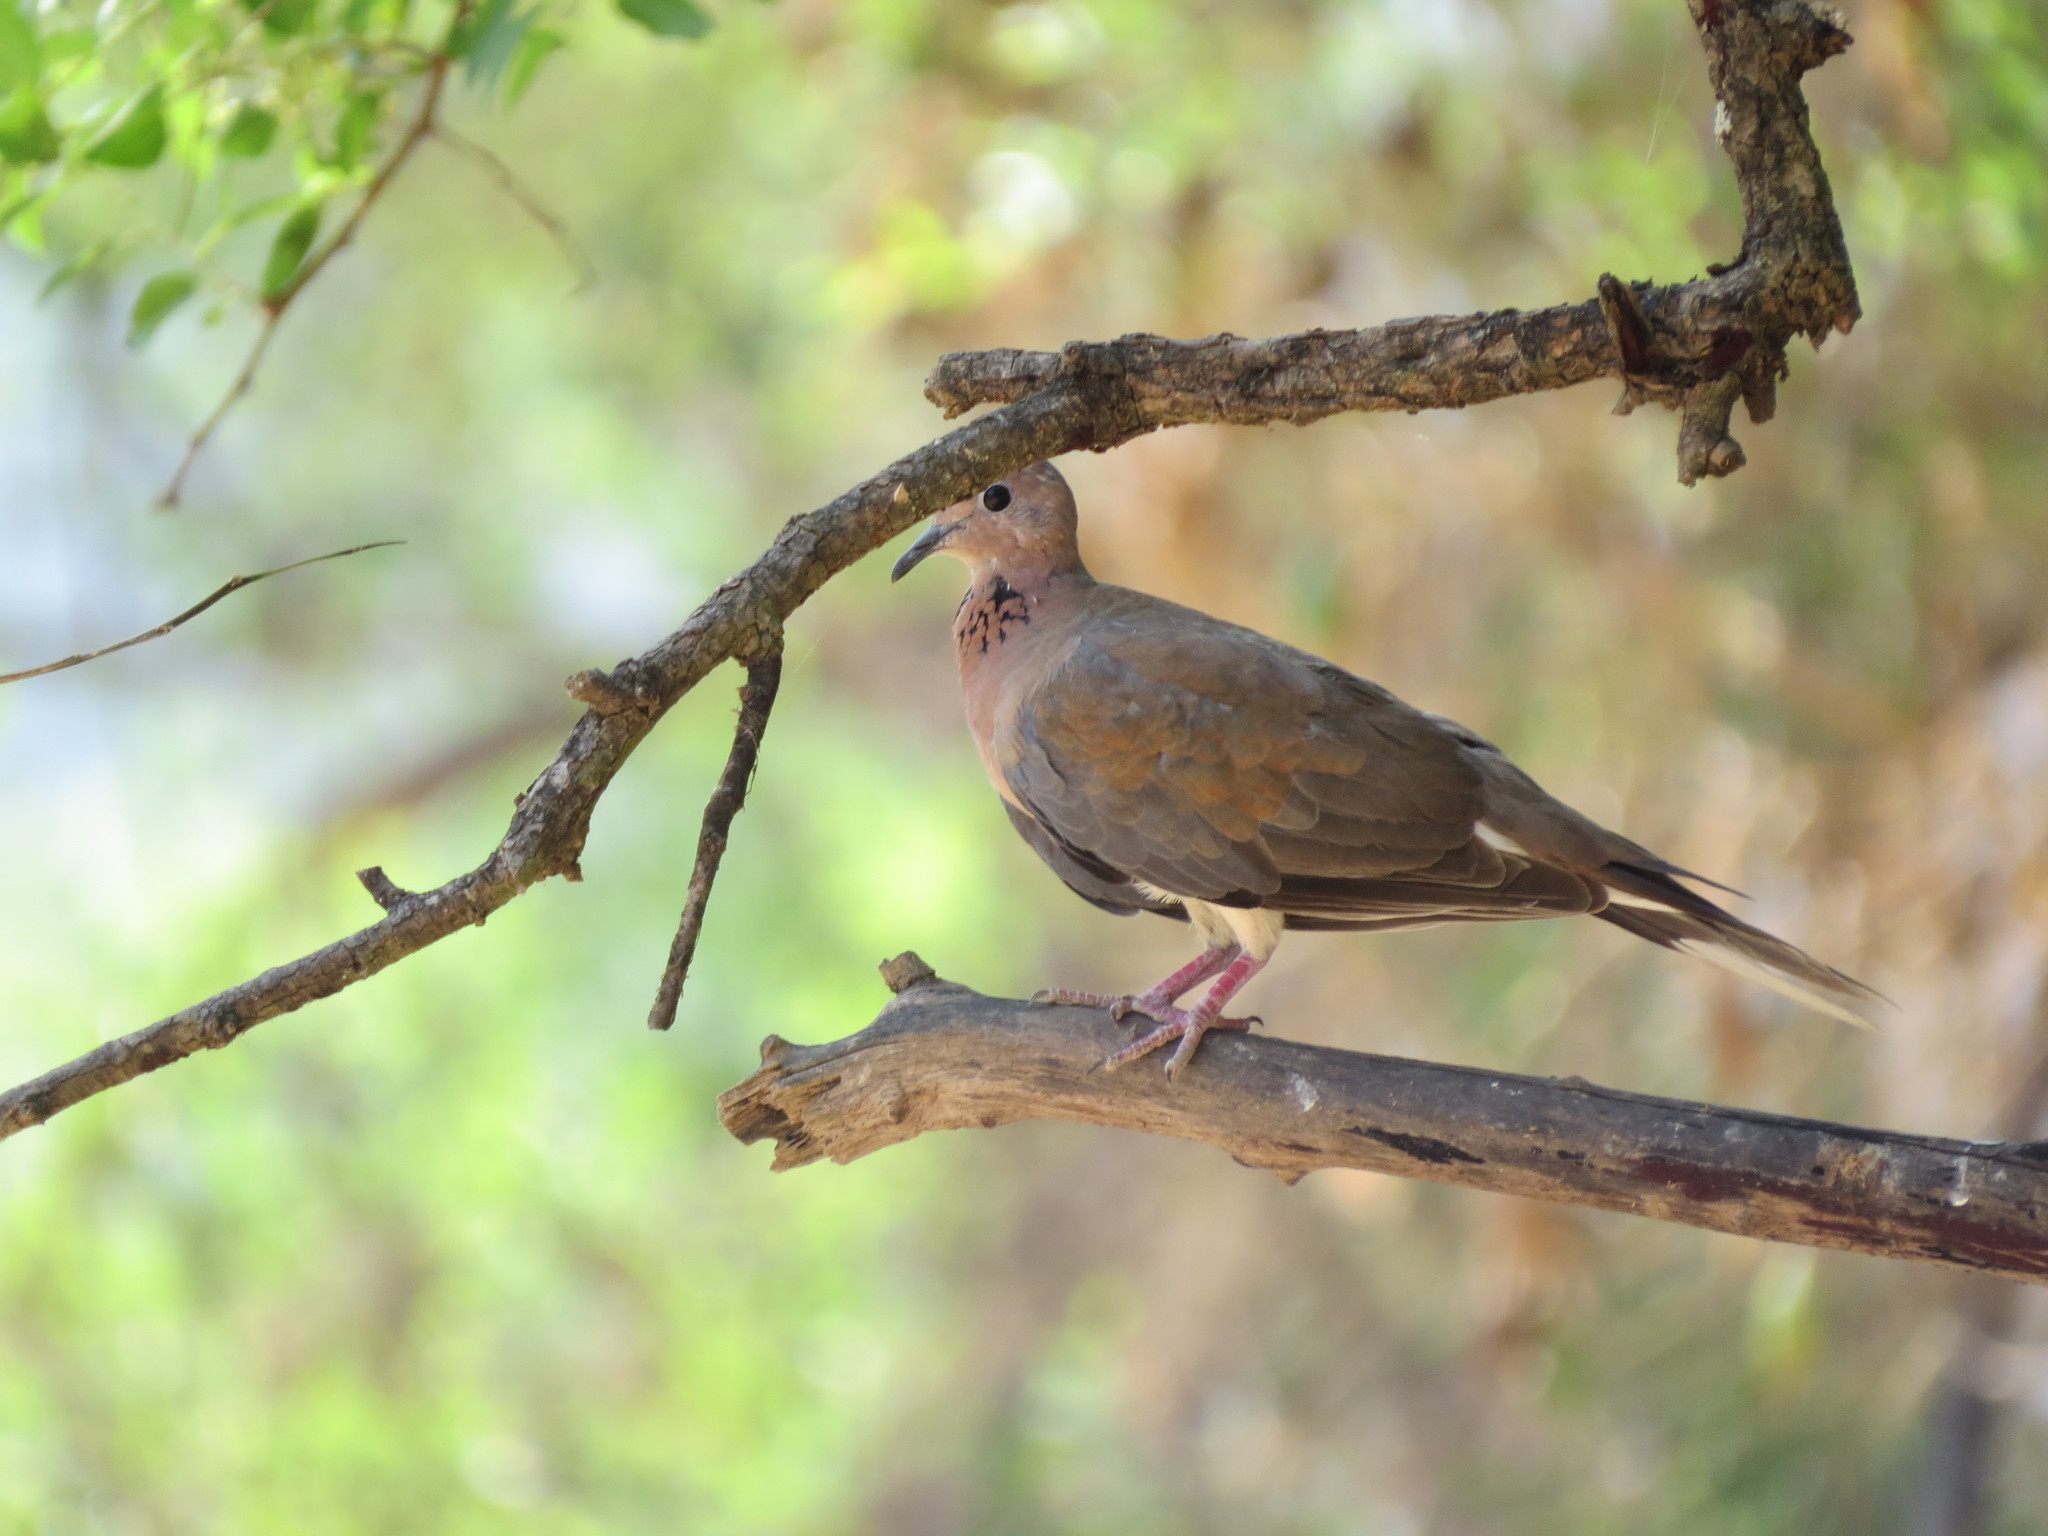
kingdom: Animalia
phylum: Chordata
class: Aves
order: Columbiformes
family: Columbidae
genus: Spilopelia
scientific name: Spilopelia senegalensis
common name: Laughing dove
